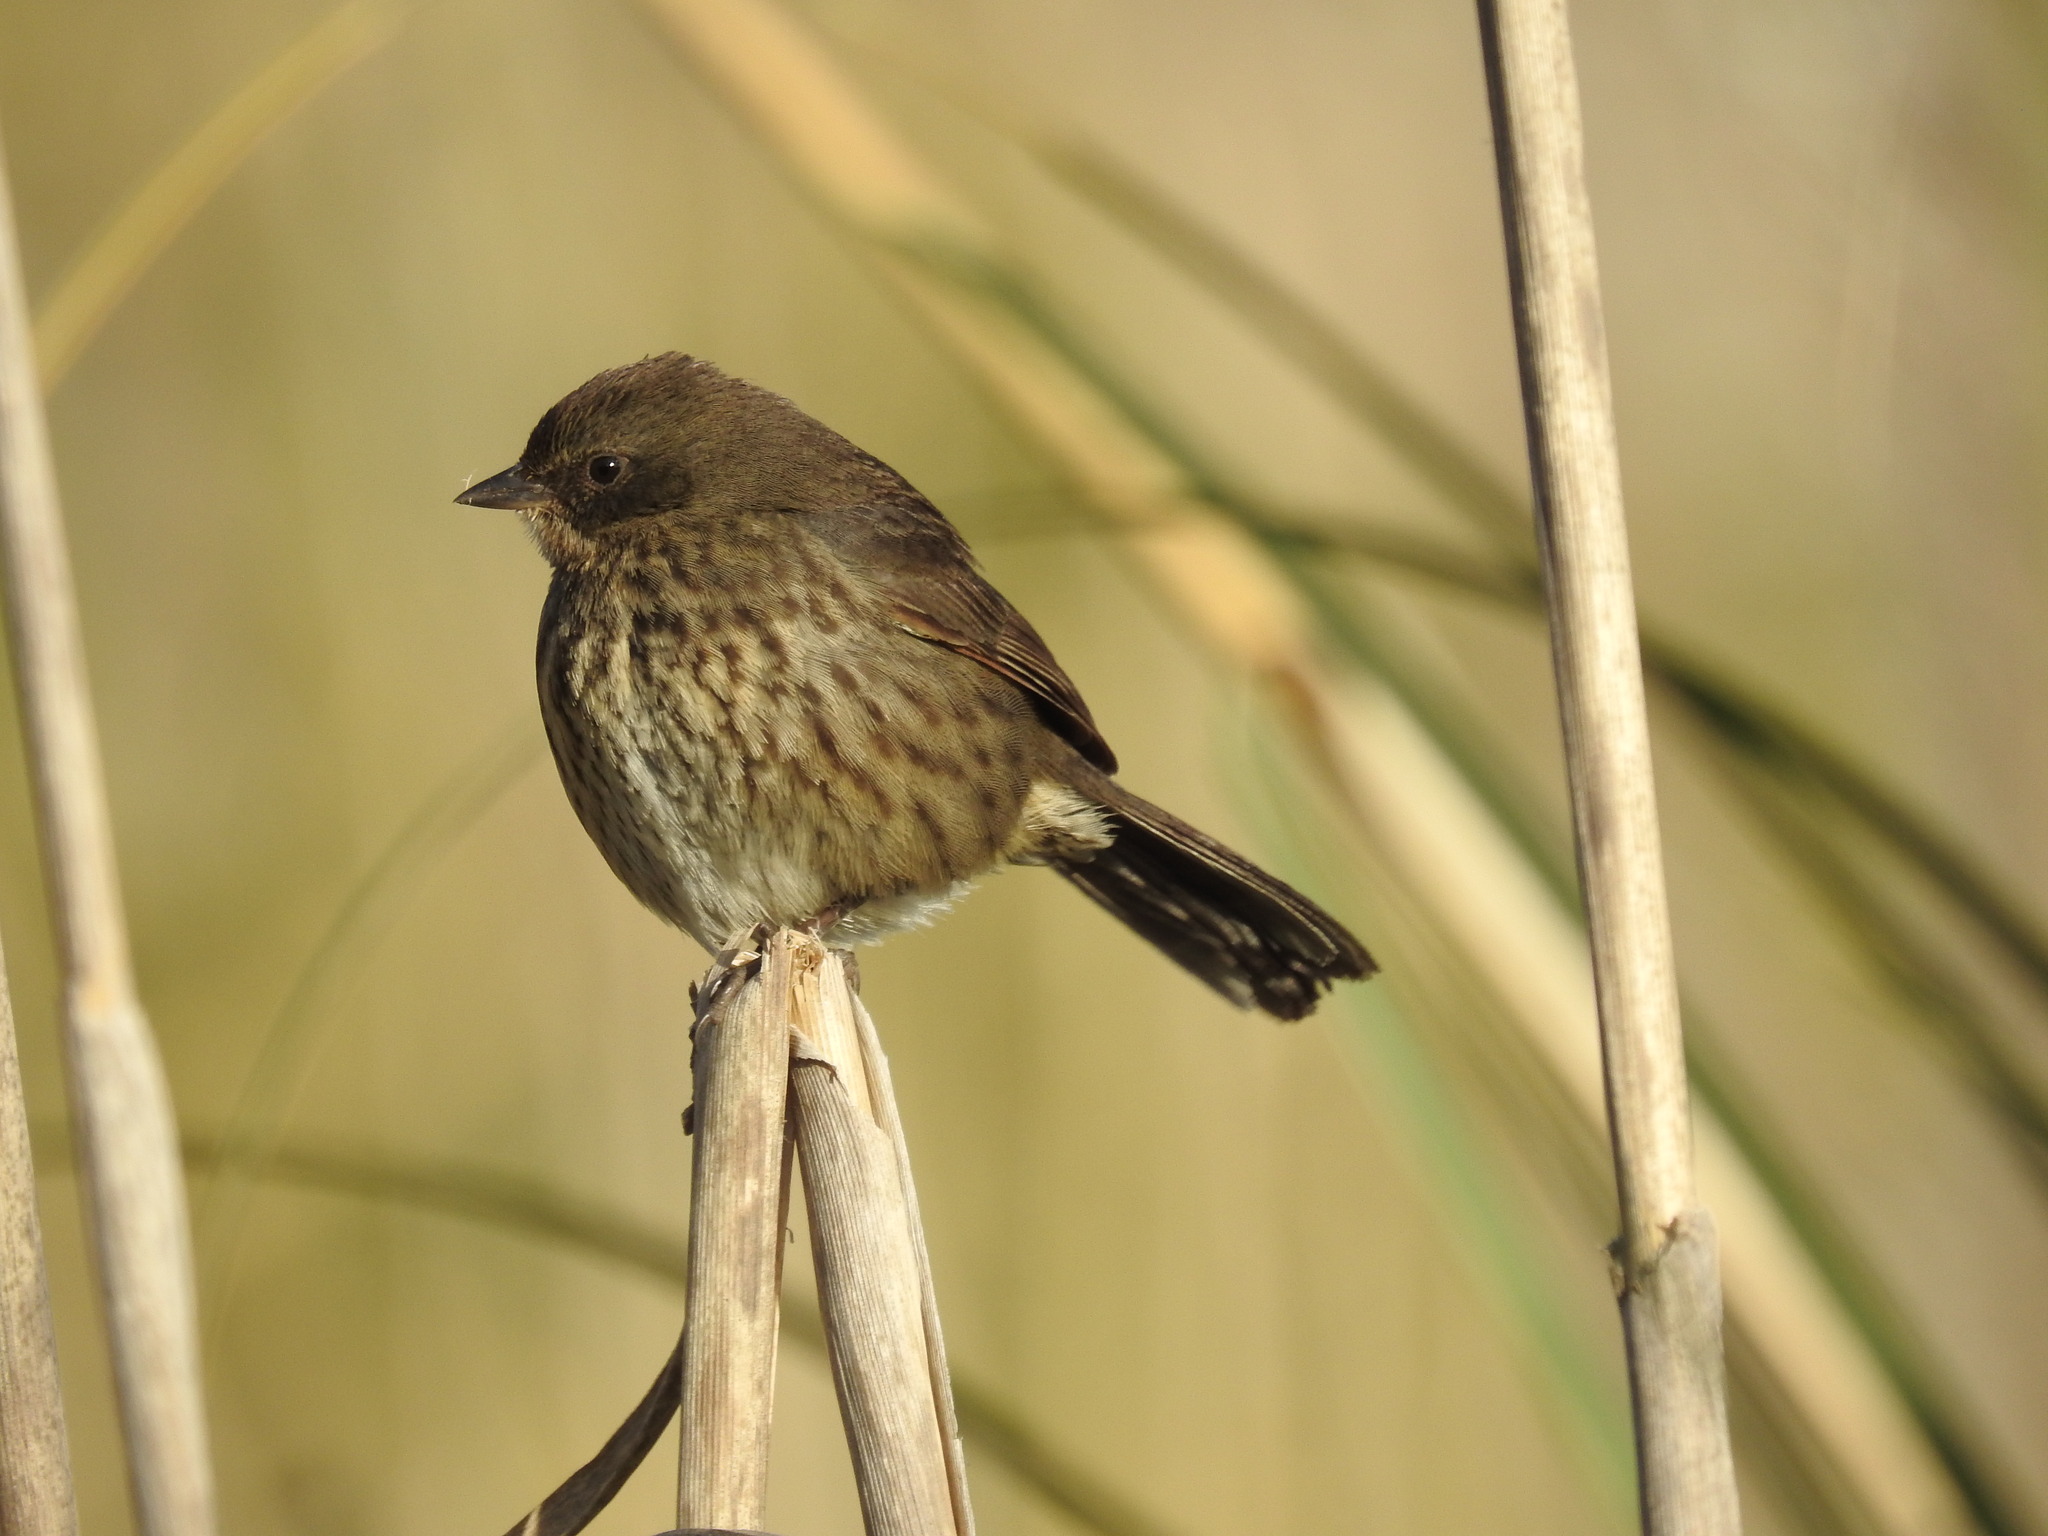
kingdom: Animalia
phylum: Chordata
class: Aves
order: Passeriformes
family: Thraupidae
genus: Poospiza
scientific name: Poospiza nigrorufa
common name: Black-and-rufous warbling finch
